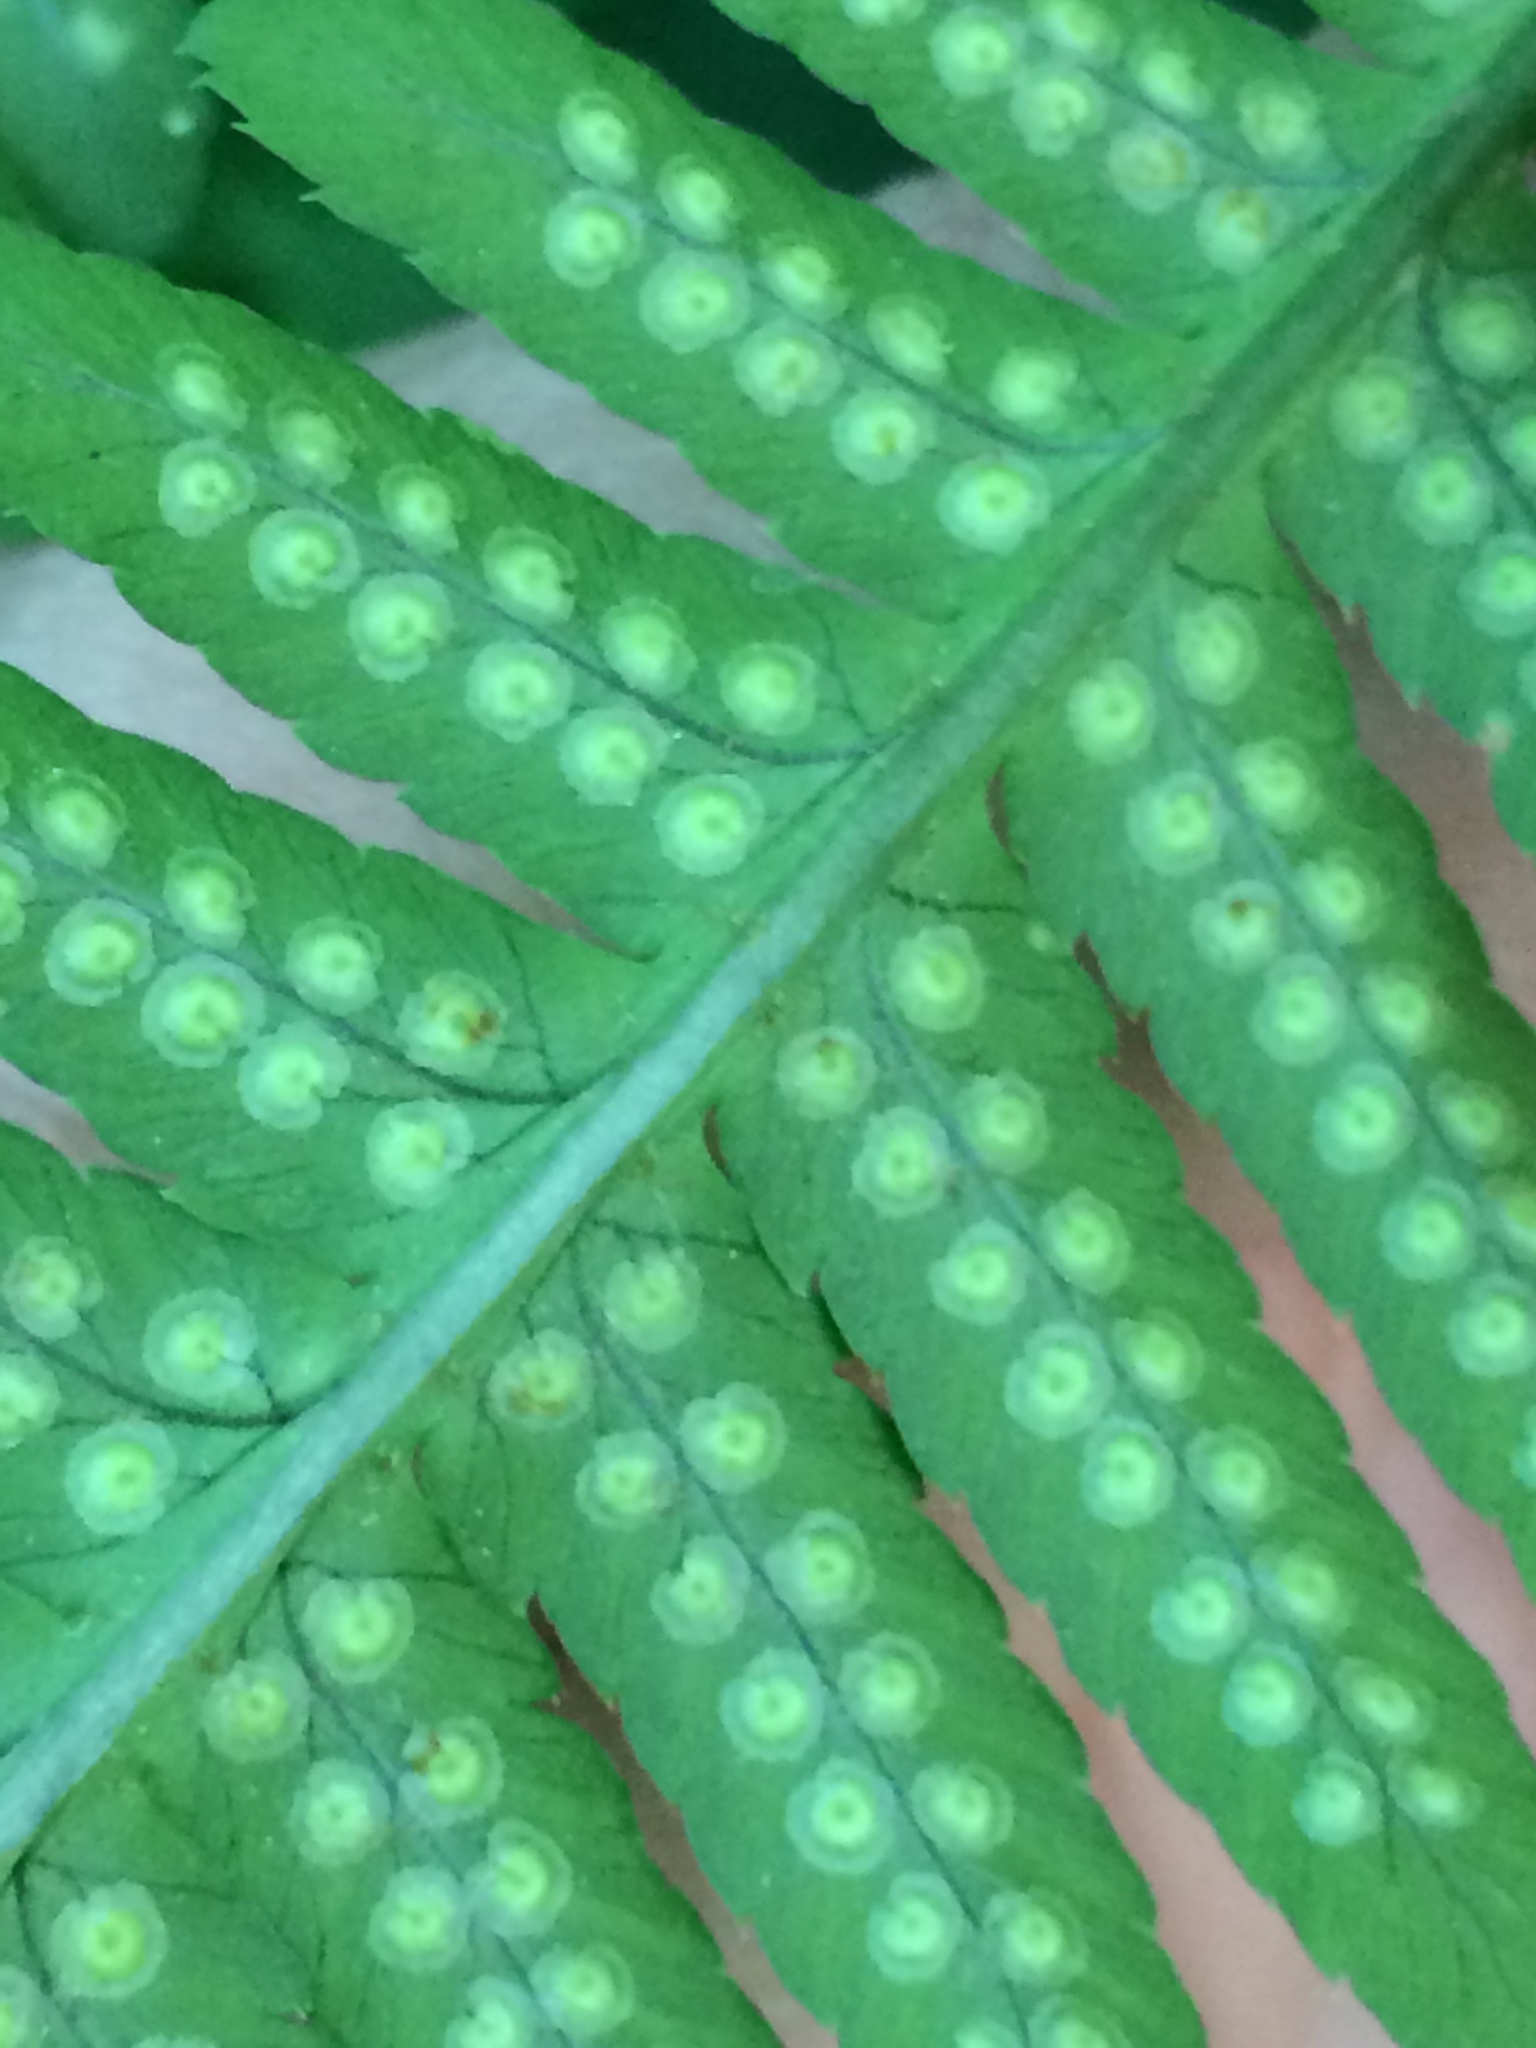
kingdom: Plantae
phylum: Tracheophyta
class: Polypodiopsida
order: Polypodiales
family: Dryopteridaceae
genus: Dryopteris
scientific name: Dryopteris goldieana
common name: Goldie's fern
